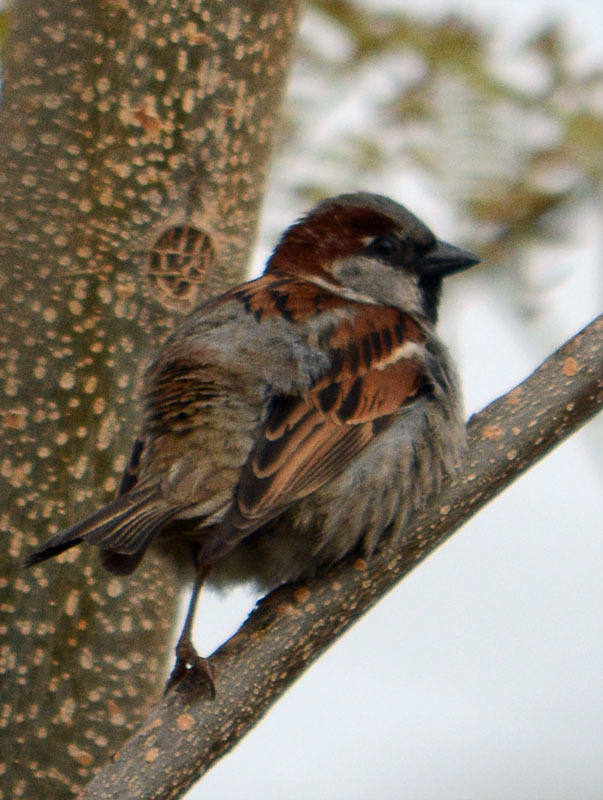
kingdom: Animalia
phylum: Chordata
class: Aves
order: Passeriformes
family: Passeridae
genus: Passer
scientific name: Passer domesticus
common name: House sparrow
